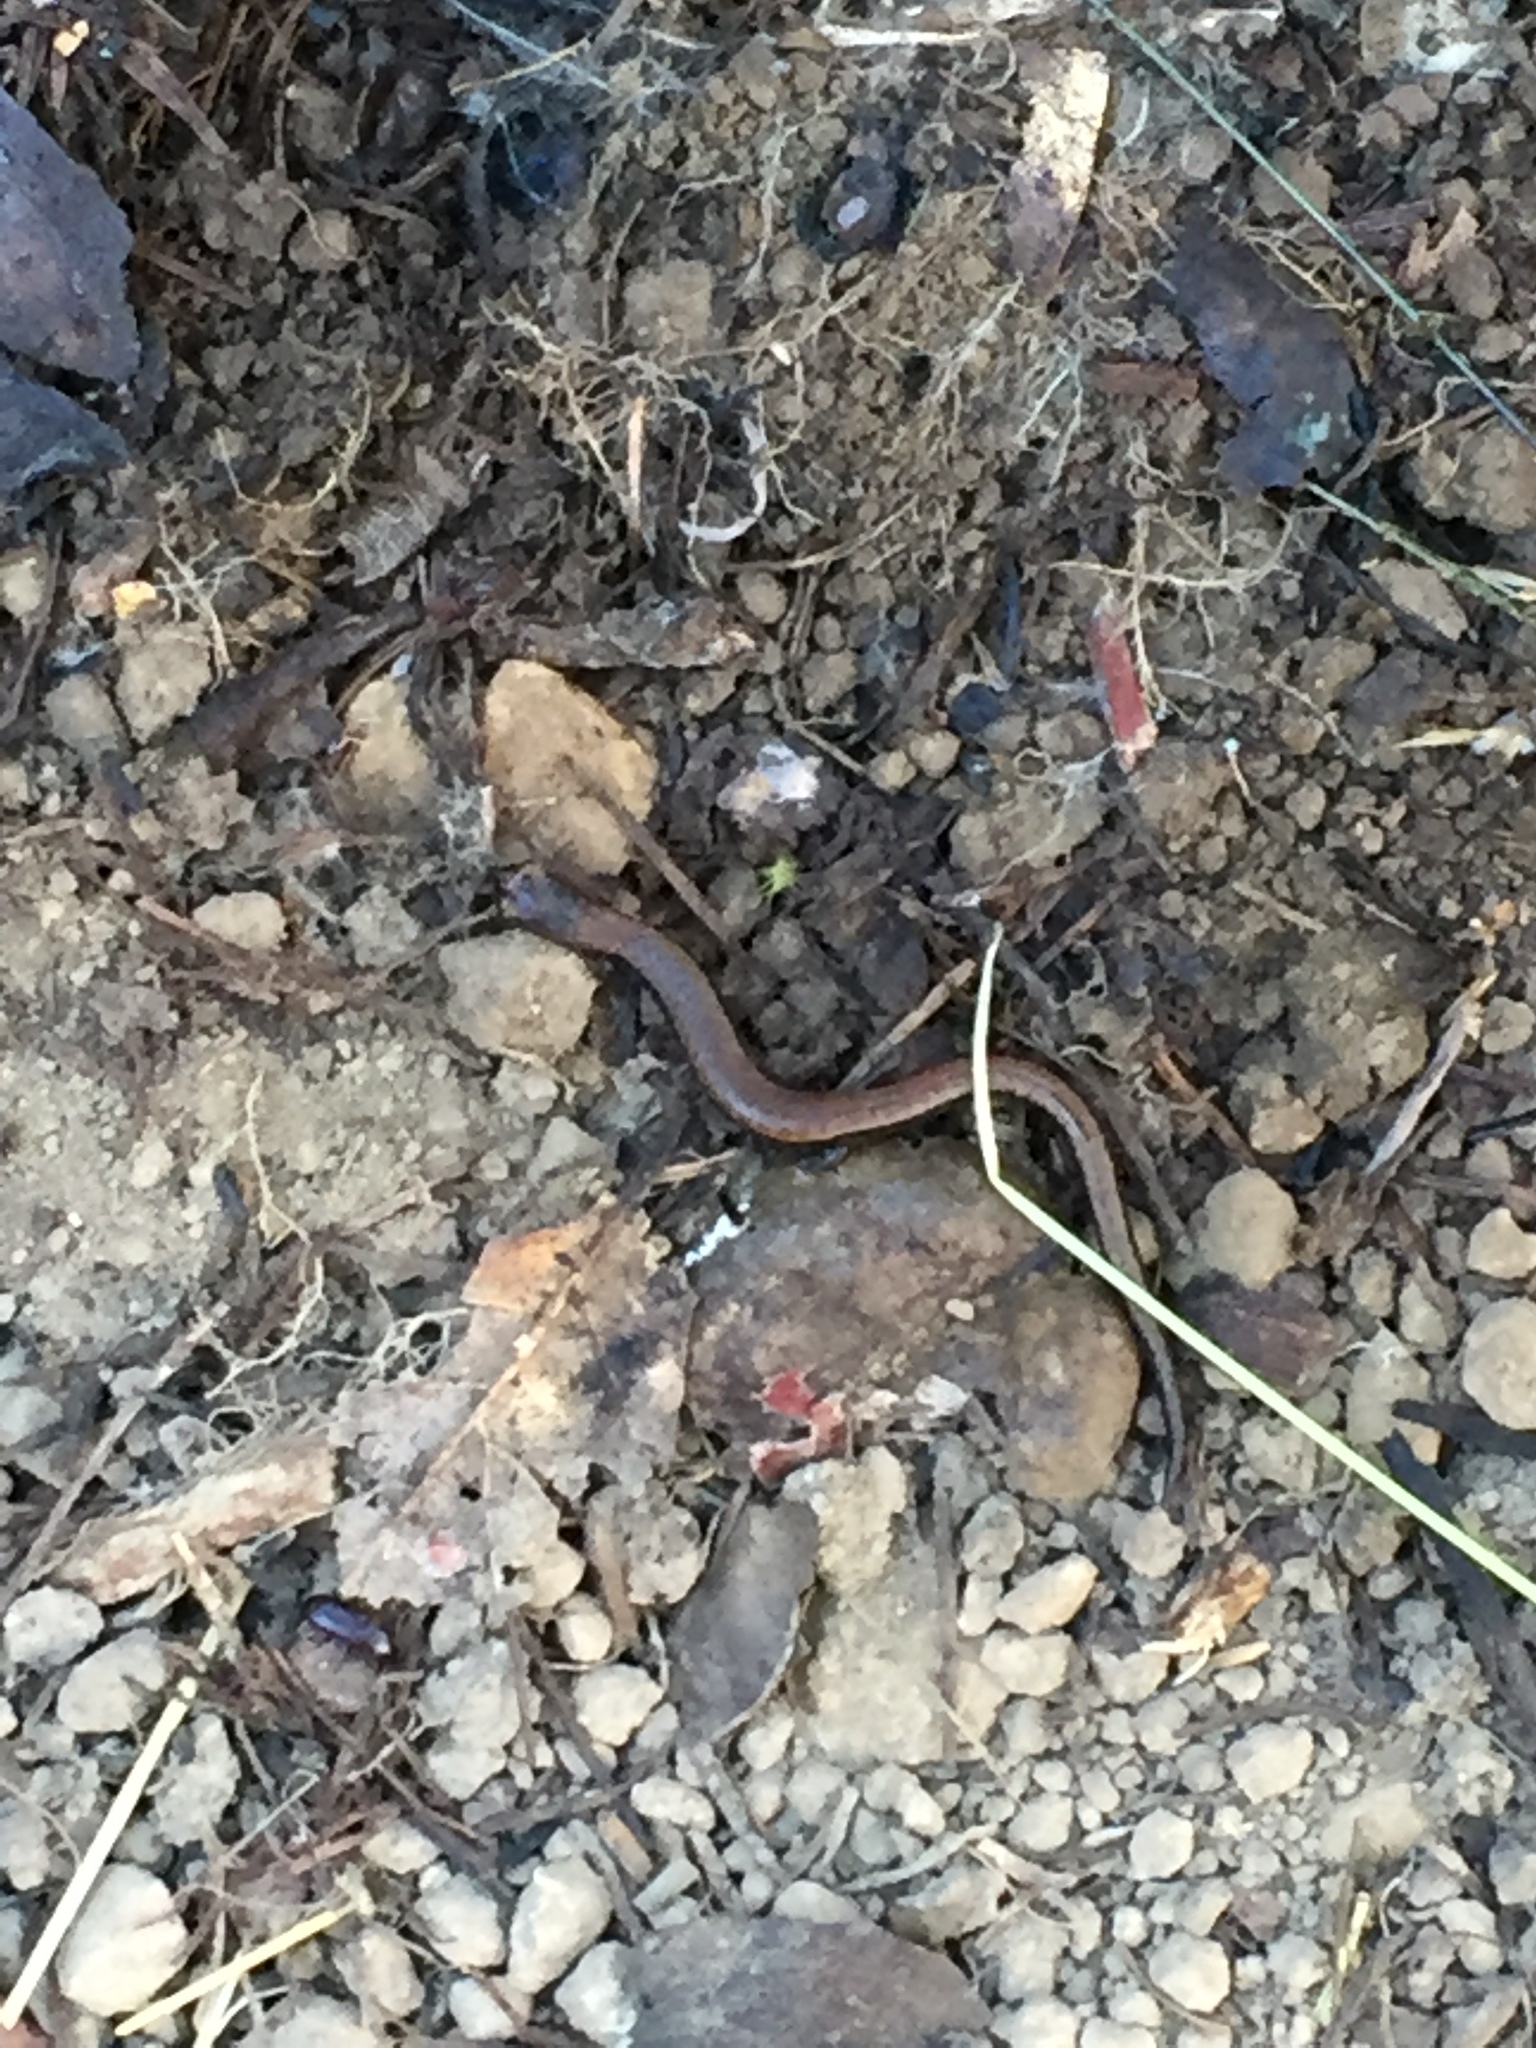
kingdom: Animalia
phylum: Chordata
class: Amphibia
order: Caudata
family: Plethodontidae
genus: Batrachoseps
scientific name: Batrachoseps attenuatus
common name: California slender salamander
